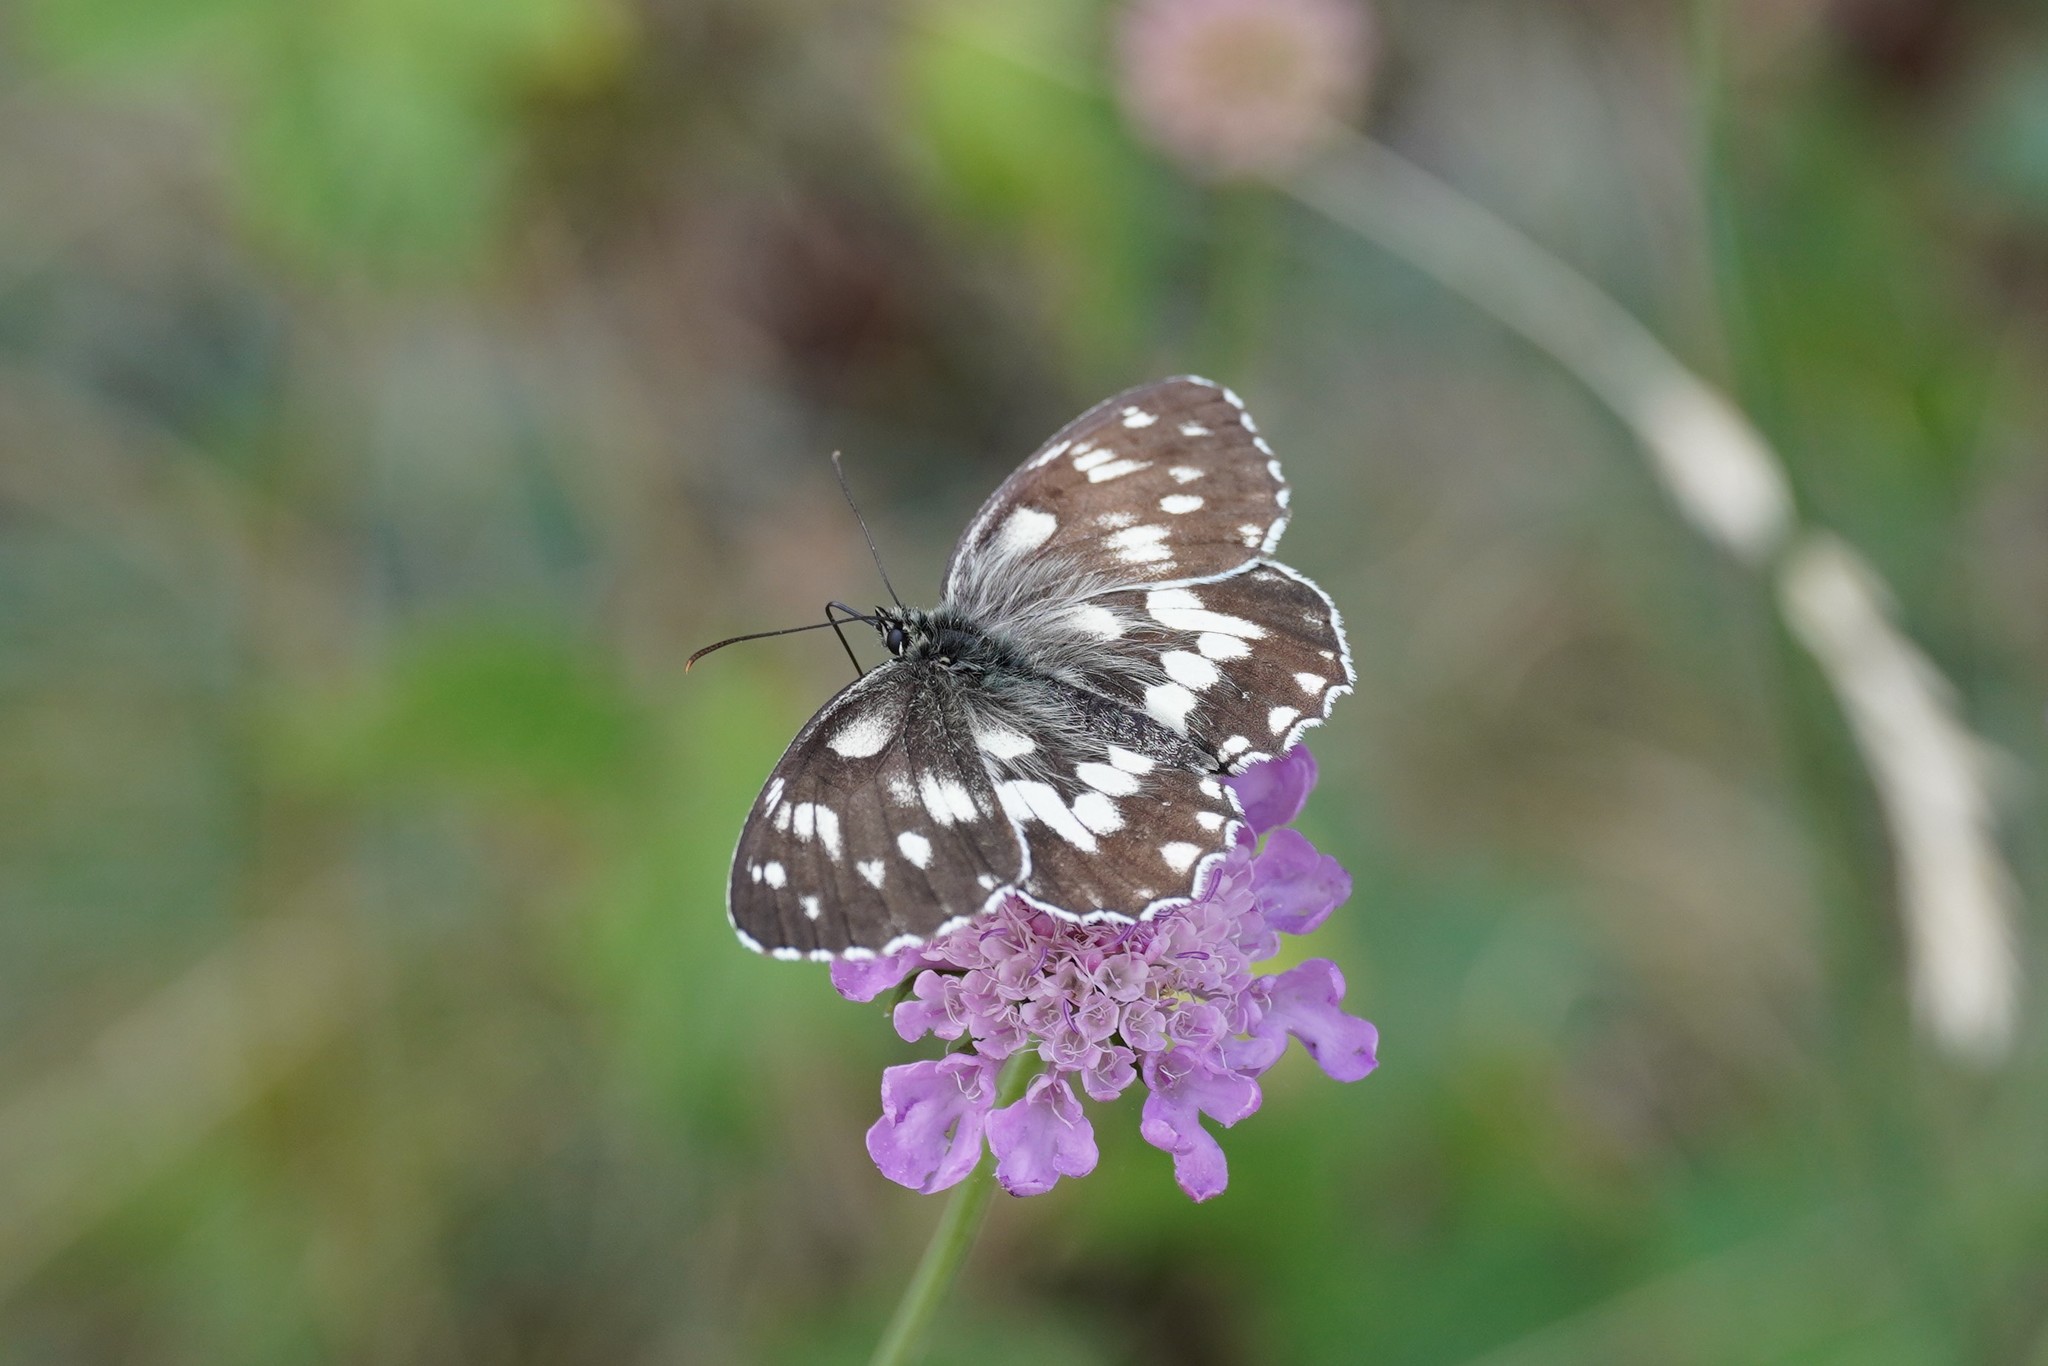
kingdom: Animalia
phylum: Arthropoda
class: Insecta
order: Lepidoptera
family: Nymphalidae
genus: Melanargia
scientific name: Melanargia galathea
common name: Marbled white
